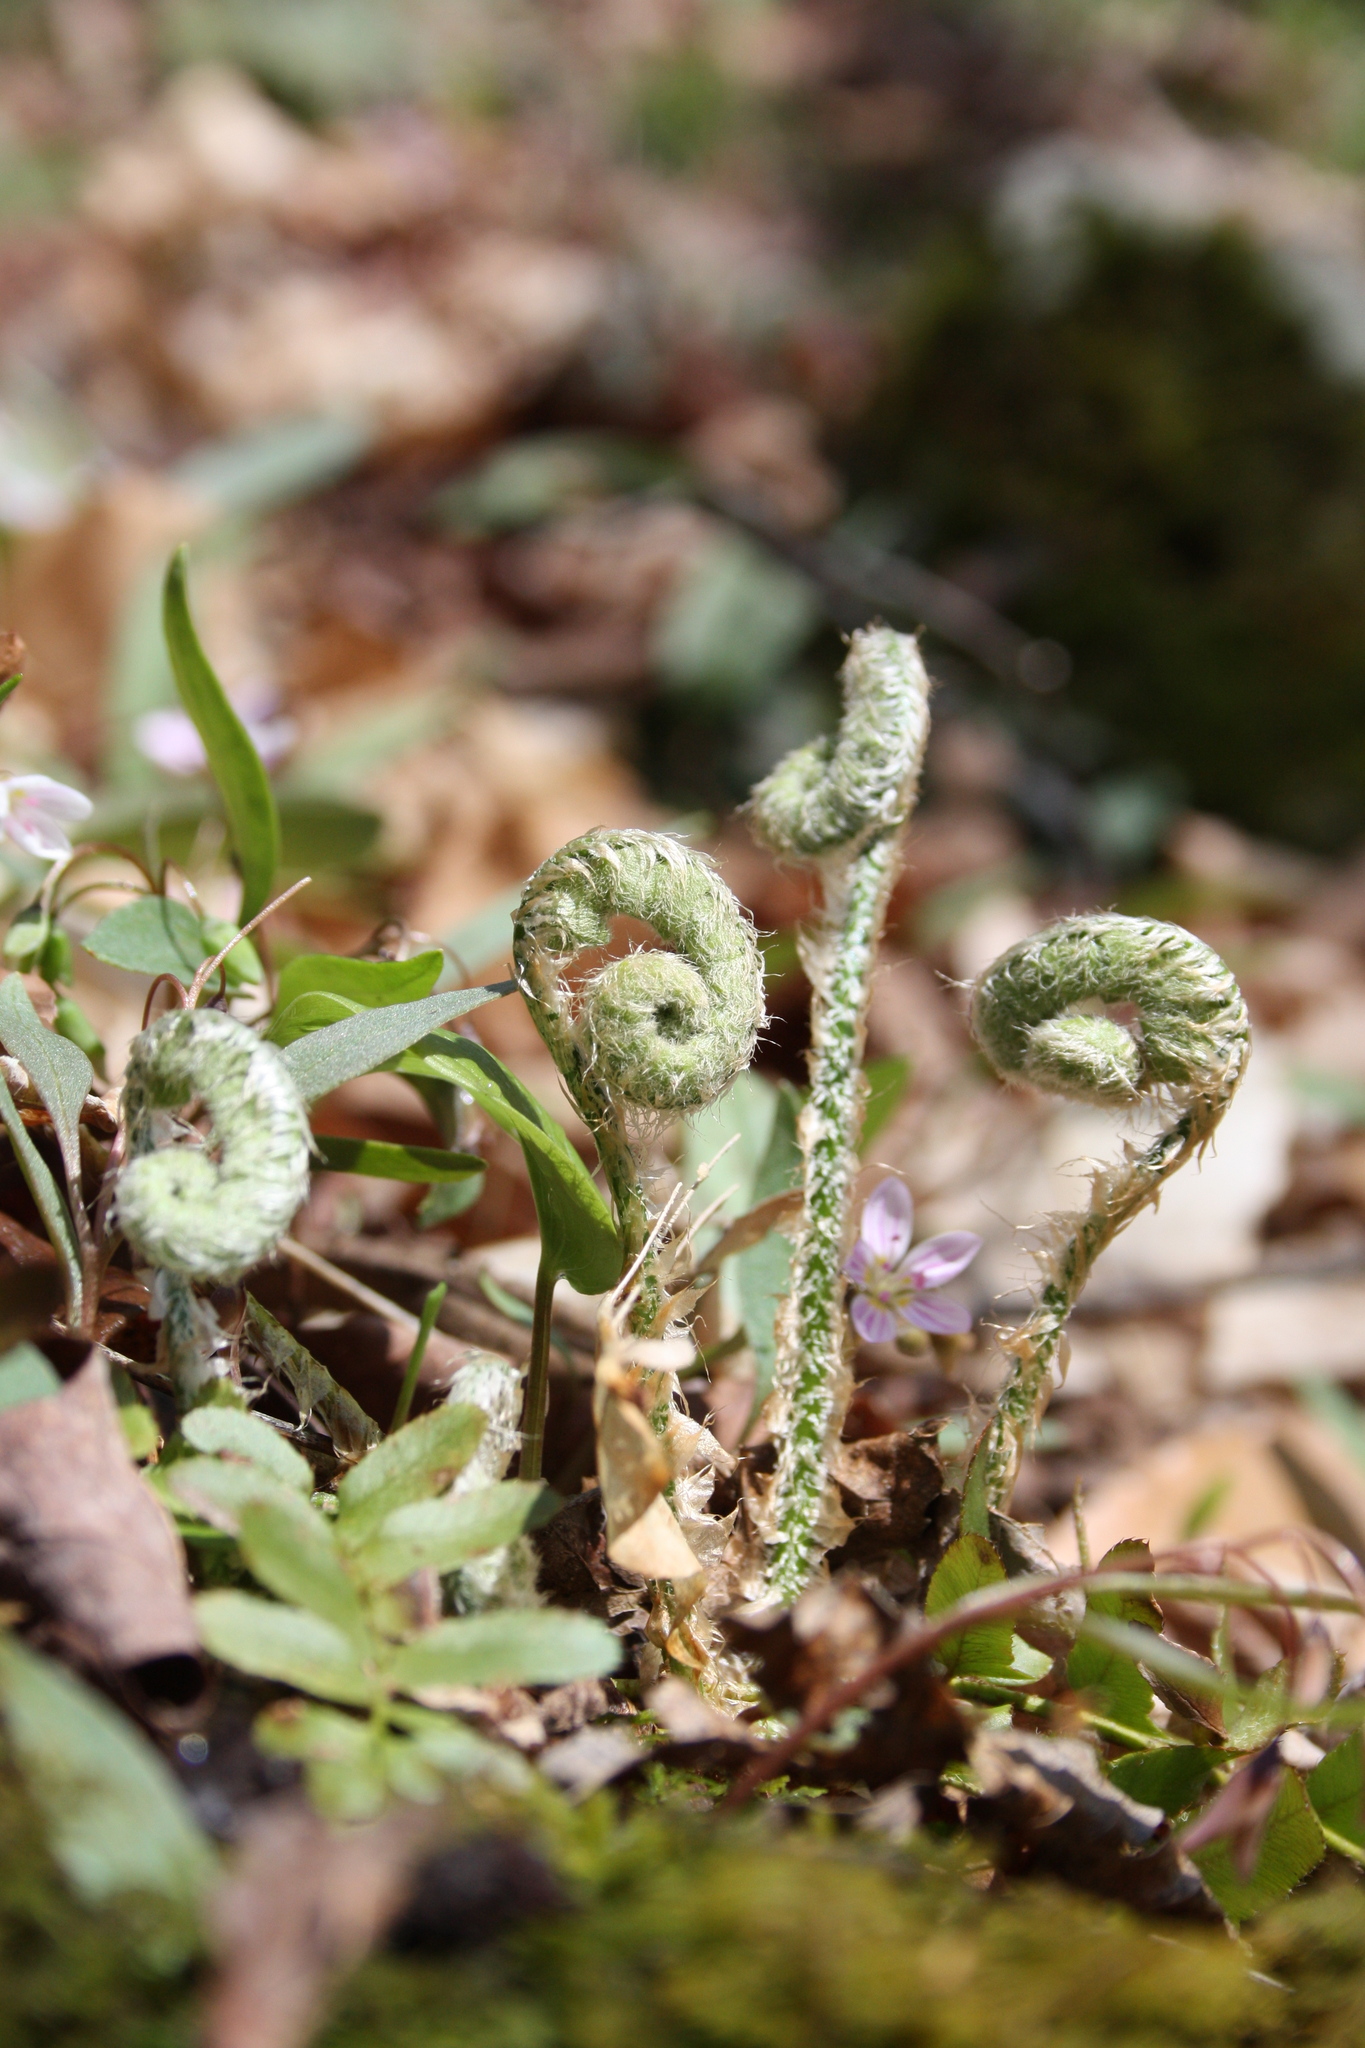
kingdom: Plantae
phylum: Tracheophyta
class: Polypodiopsida
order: Polypodiales
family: Dryopteridaceae
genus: Polystichum
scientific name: Polystichum acrostichoides
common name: Christmas fern
